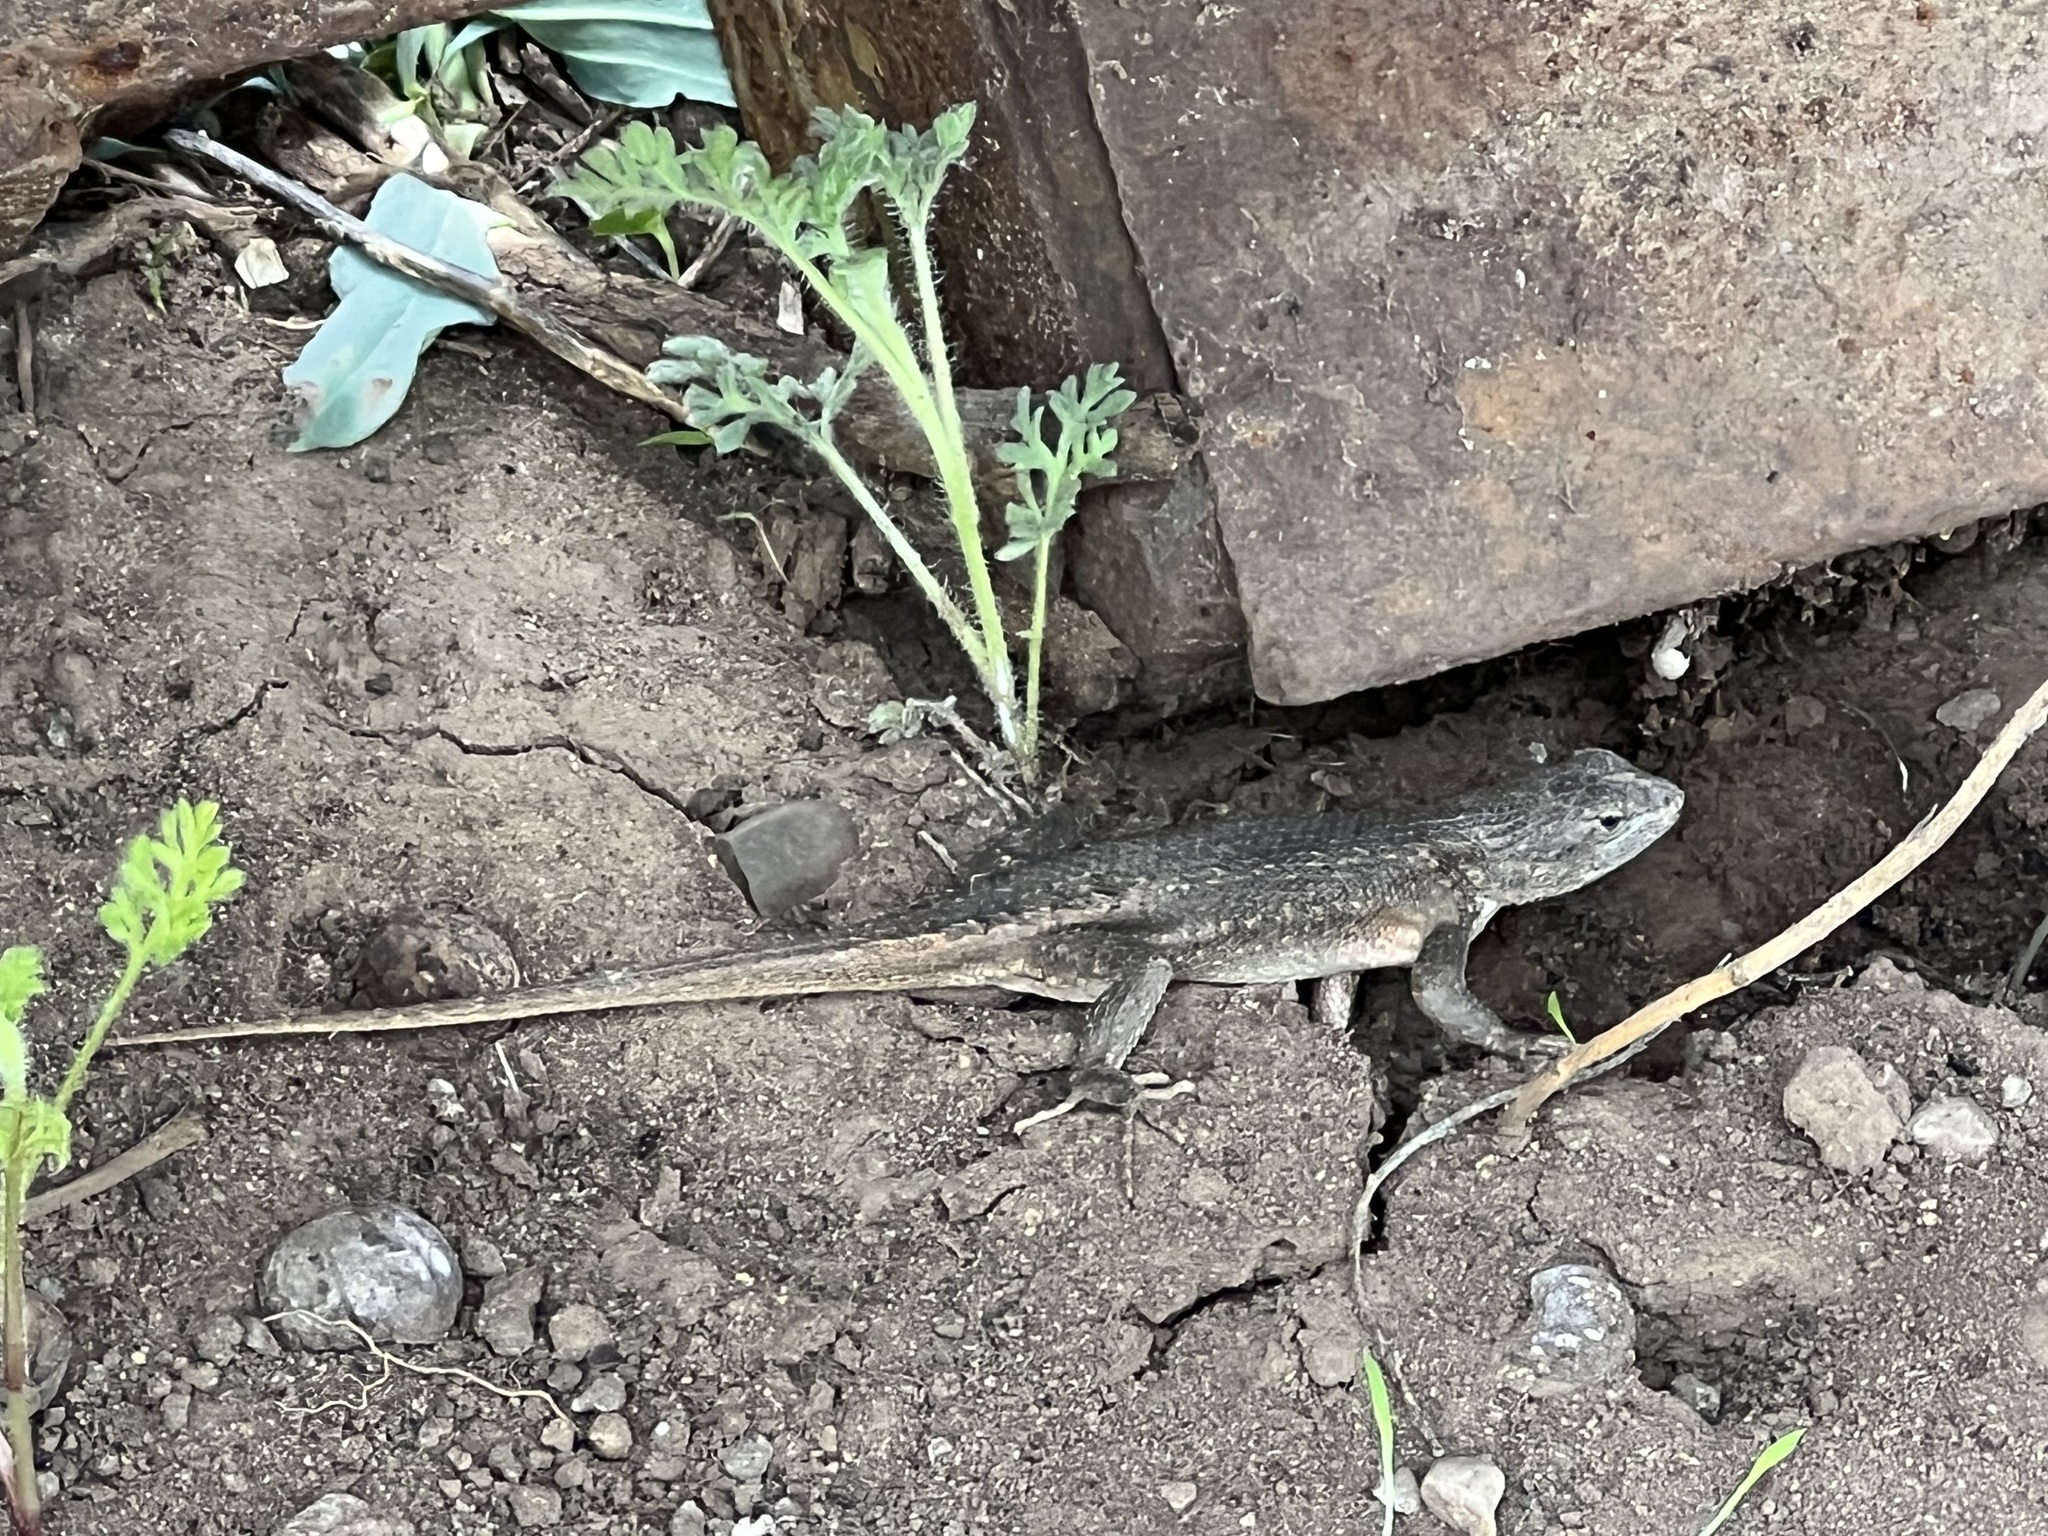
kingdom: Animalia
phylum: Chordata
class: Squamata
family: Phrynosomatidae
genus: Sceloporus
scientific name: Sceloporus cowlesi
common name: White sands prairie lizard
